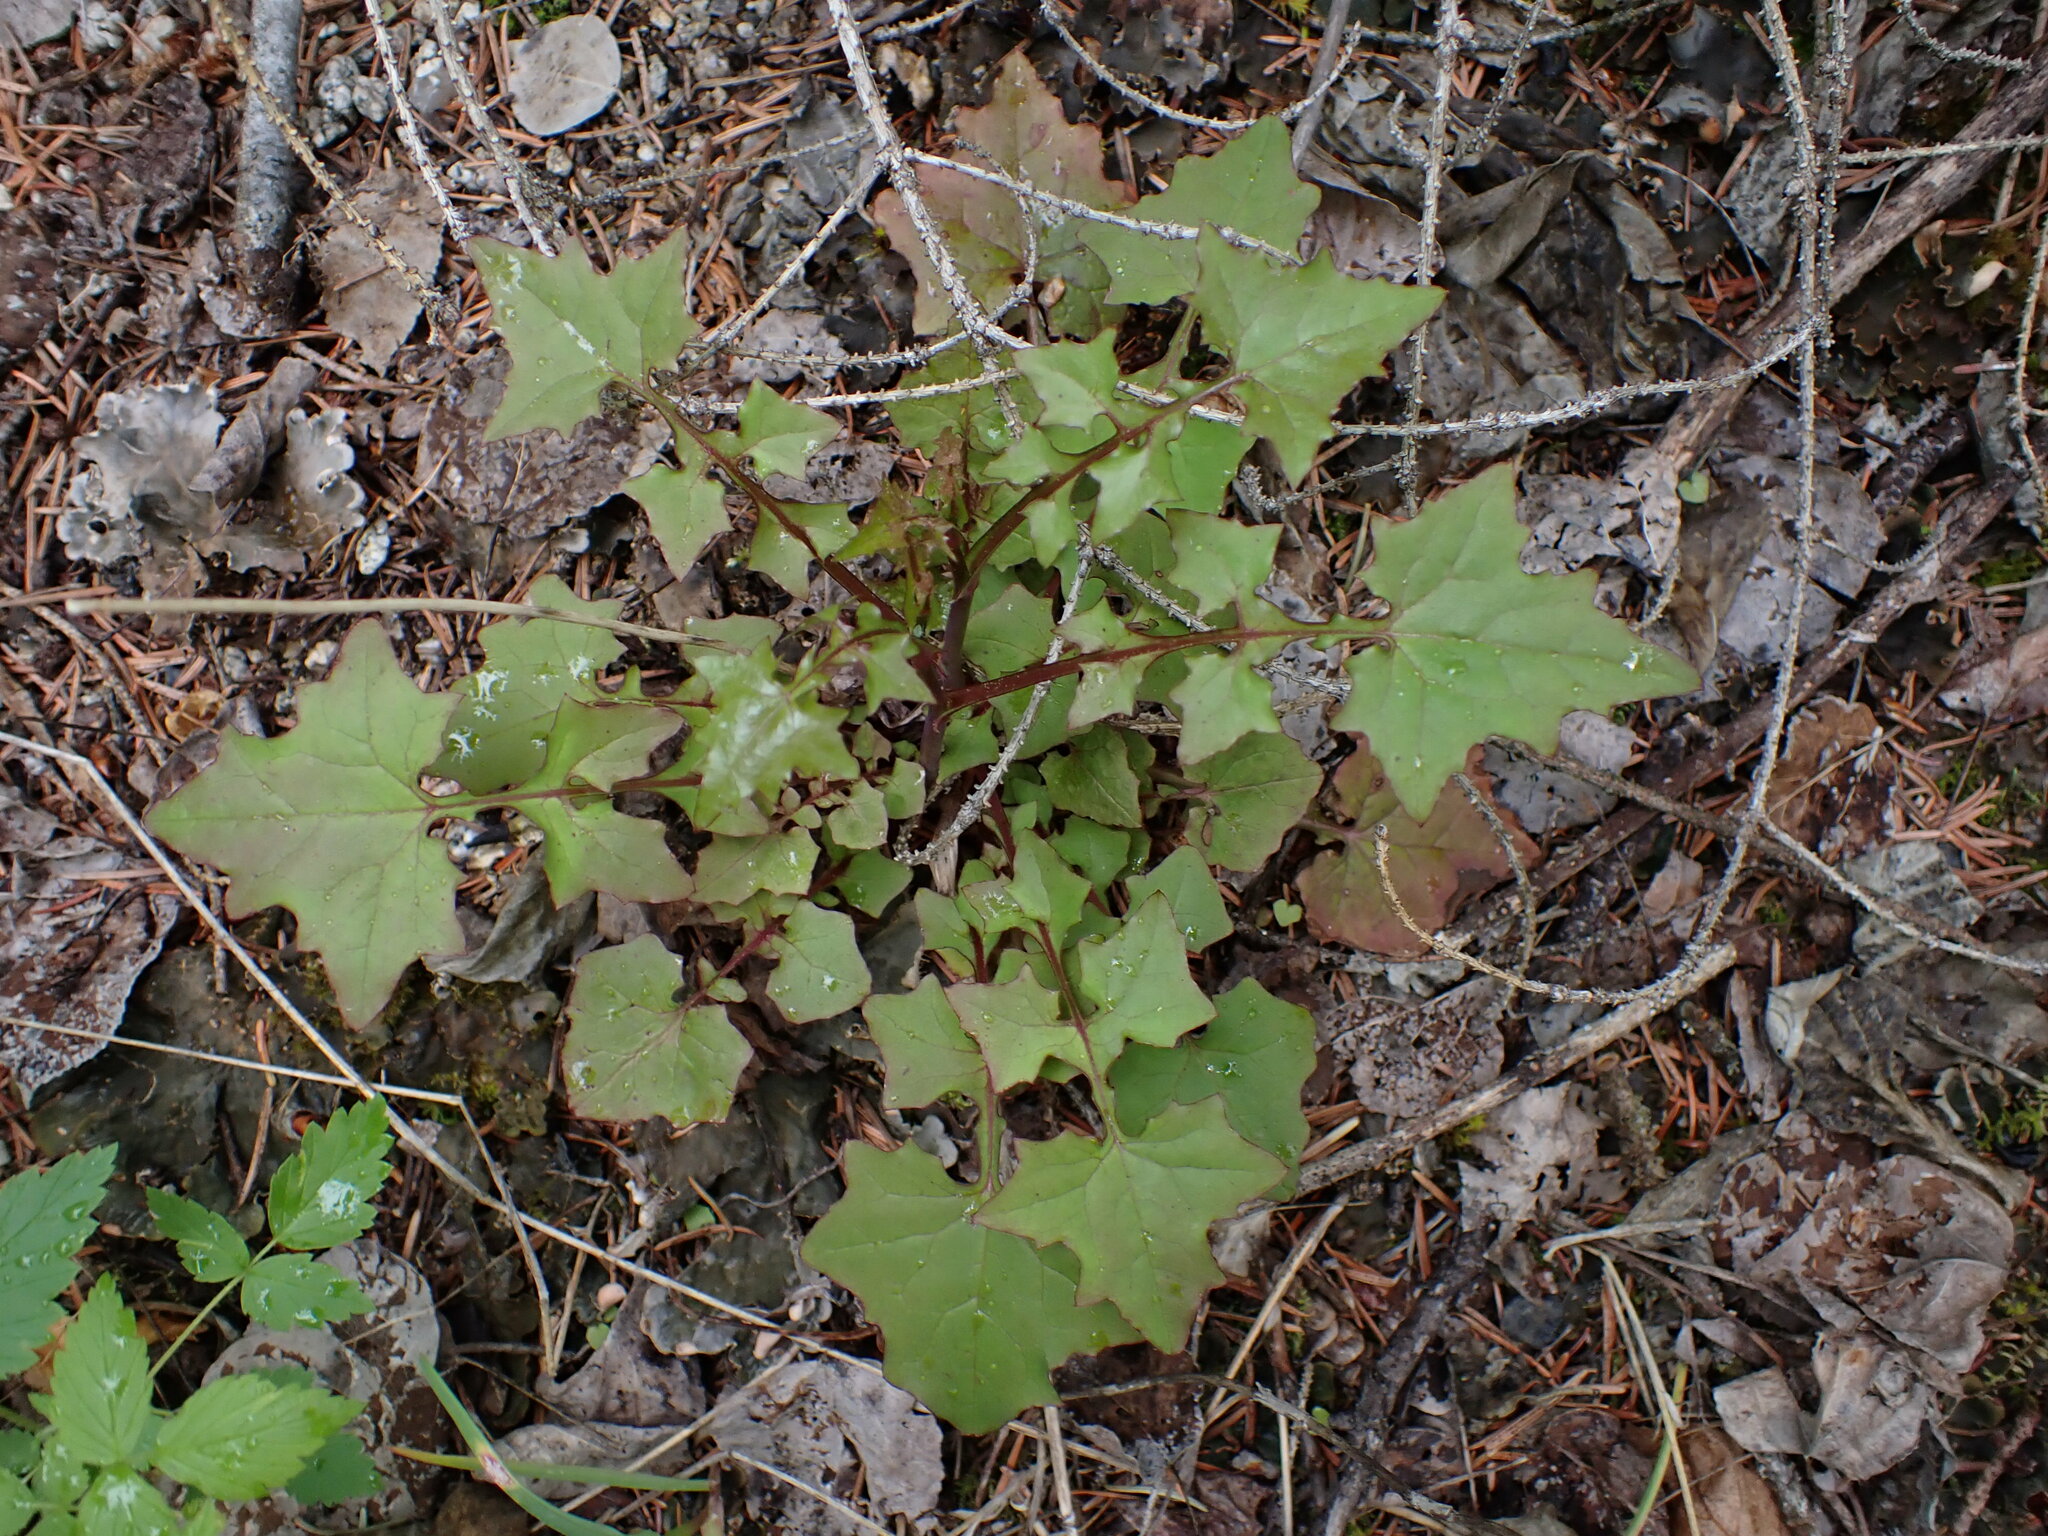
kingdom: Plantae
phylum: Tracheophyta
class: Magnoliopsida
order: Asterales
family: Asteraceae
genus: Mycelis
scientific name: Mycelis muralis
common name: Wall lettuce
